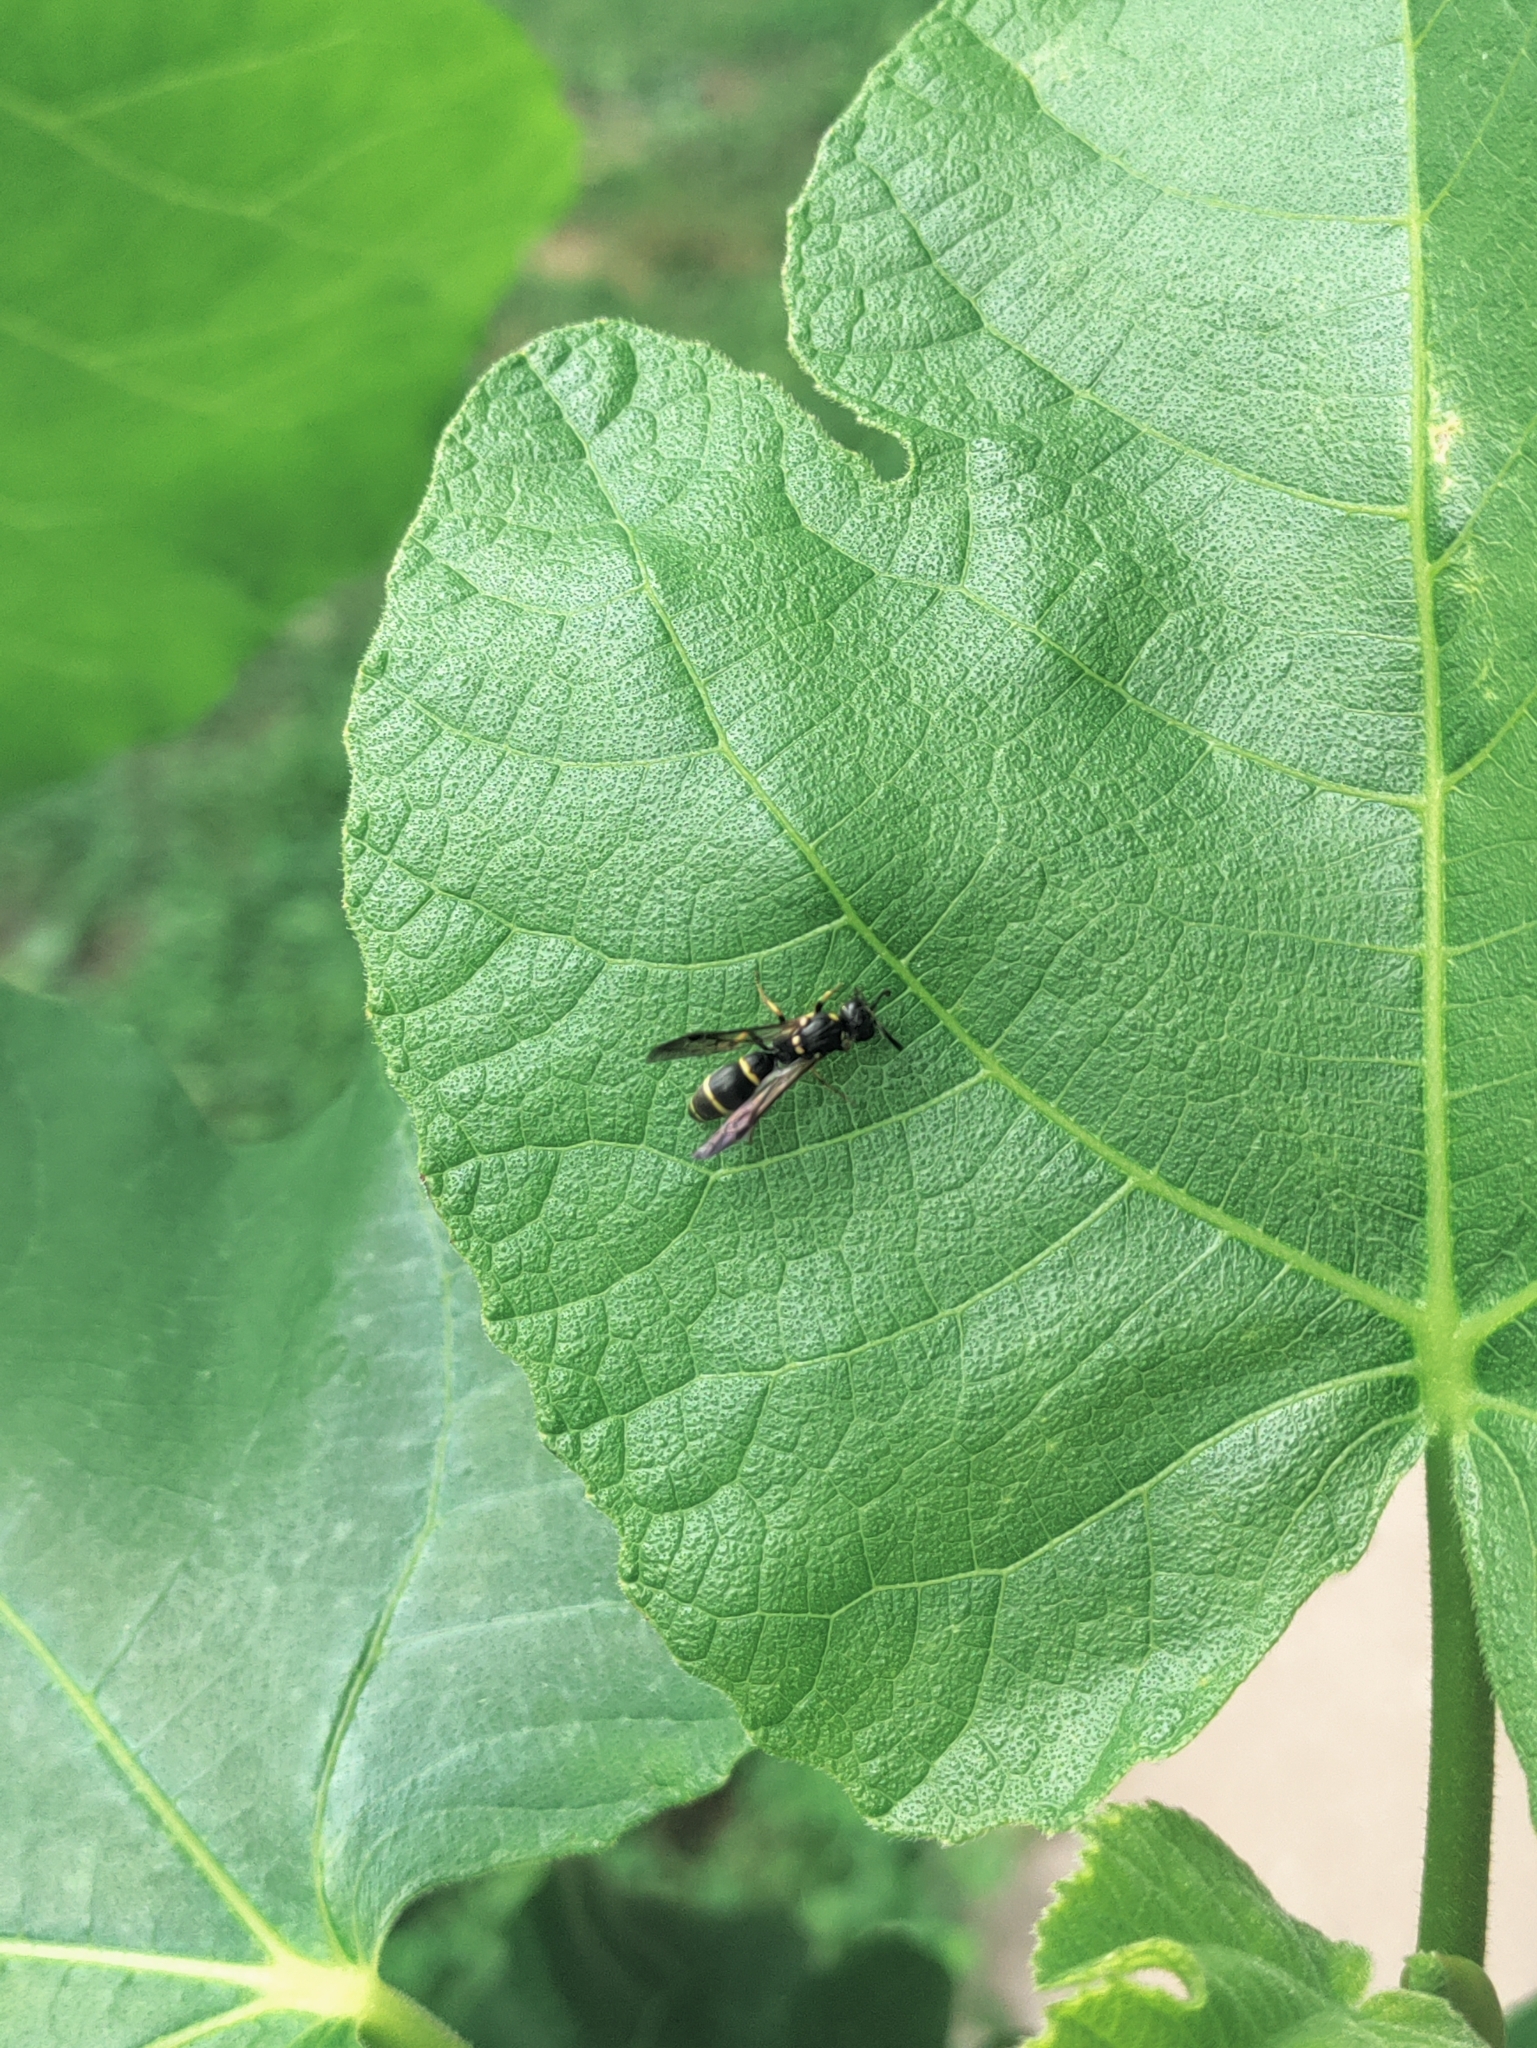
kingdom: Animalia
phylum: Arthropoda
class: Insecta
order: Hymenoptera
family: Eumenidae
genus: Symmorphus
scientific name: Symmorphus
